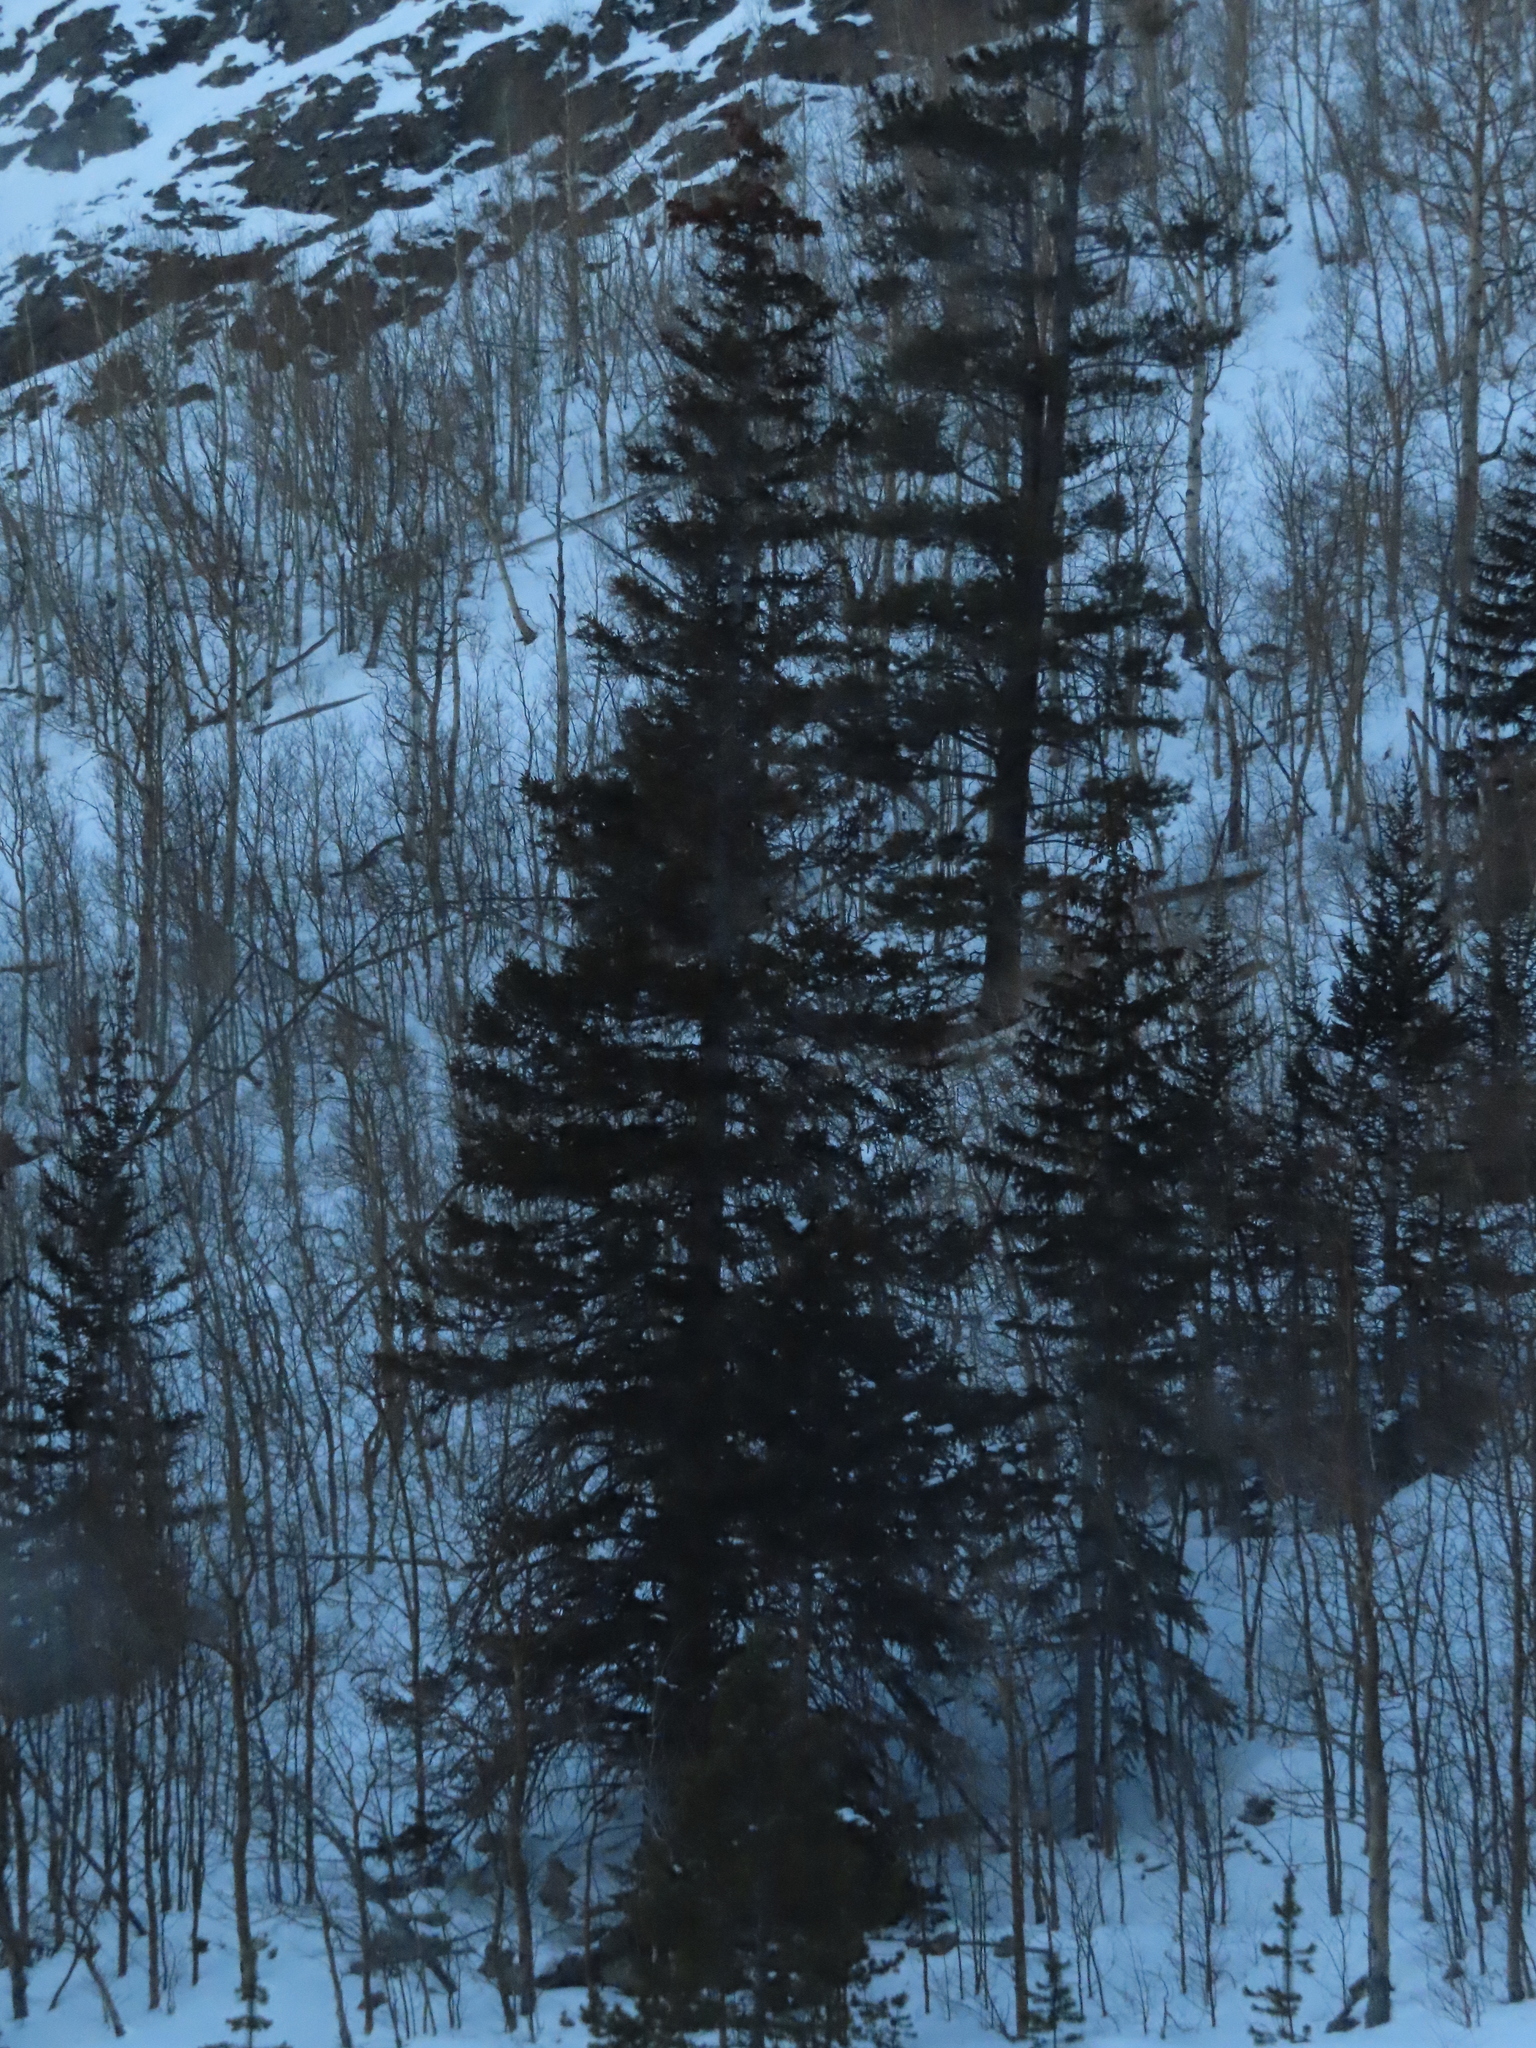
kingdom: Plantae
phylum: Tracheophyta
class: Pinopsida
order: Pinales
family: Pinaceae
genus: Picea
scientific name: Picea pungens
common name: Colorado spruce
